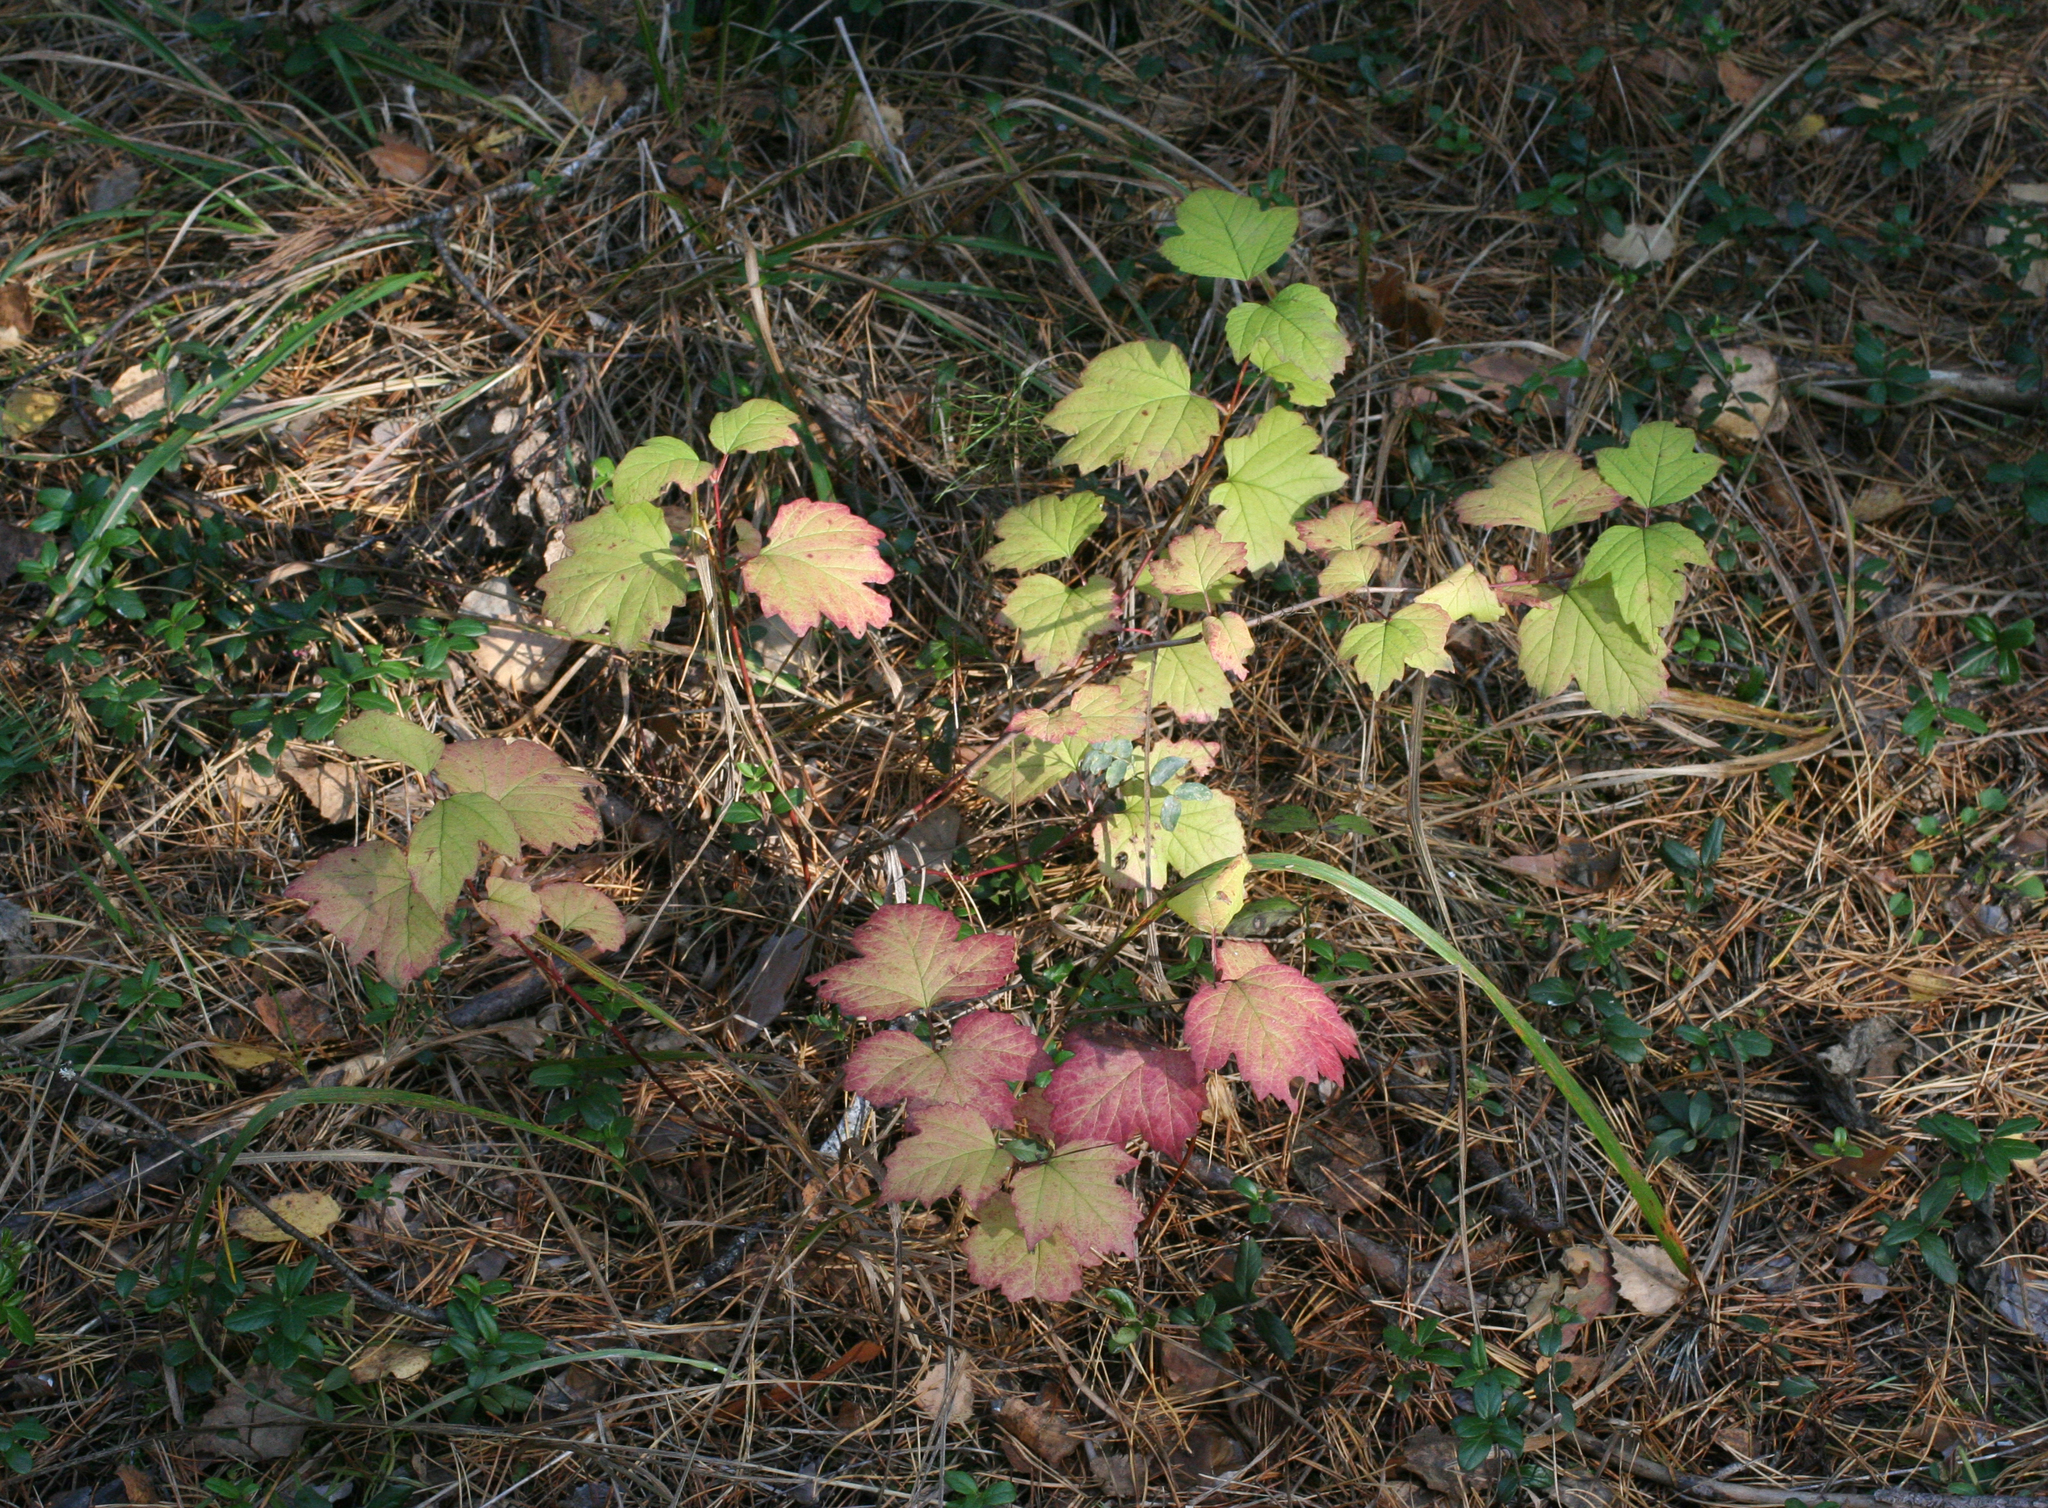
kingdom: Plantae
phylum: Tracheophyta
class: Magnoliopsida
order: Dipsacales
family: Viburnaceae
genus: Viburnum
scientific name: Viburnum opulus
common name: Guelder-rose
